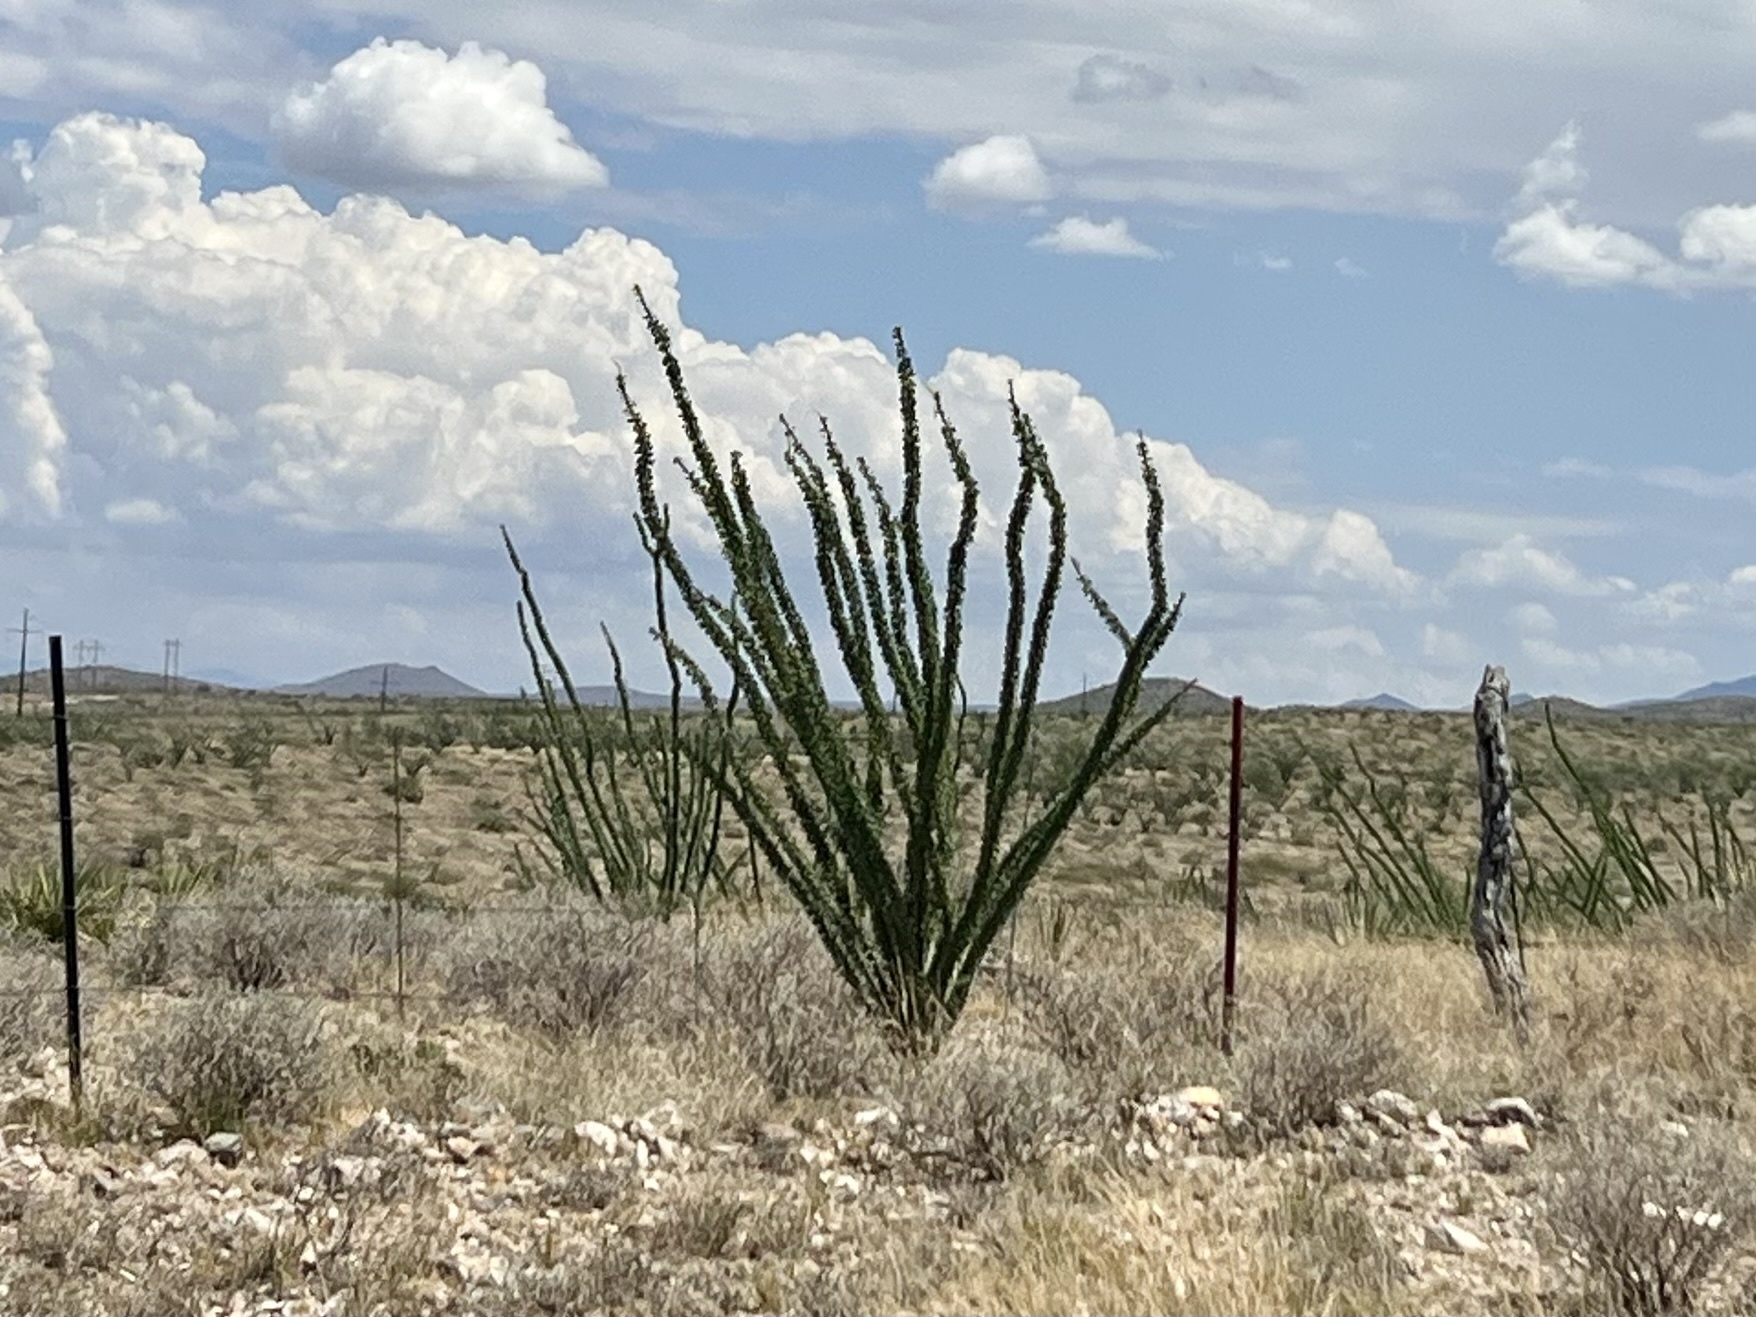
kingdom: Plantae
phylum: Tracheophyta
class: Magnoliopsida
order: Ericales
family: Fouquieriaceae
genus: Fouquieria
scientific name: Fouquieria splendens
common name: Vine-cactus
